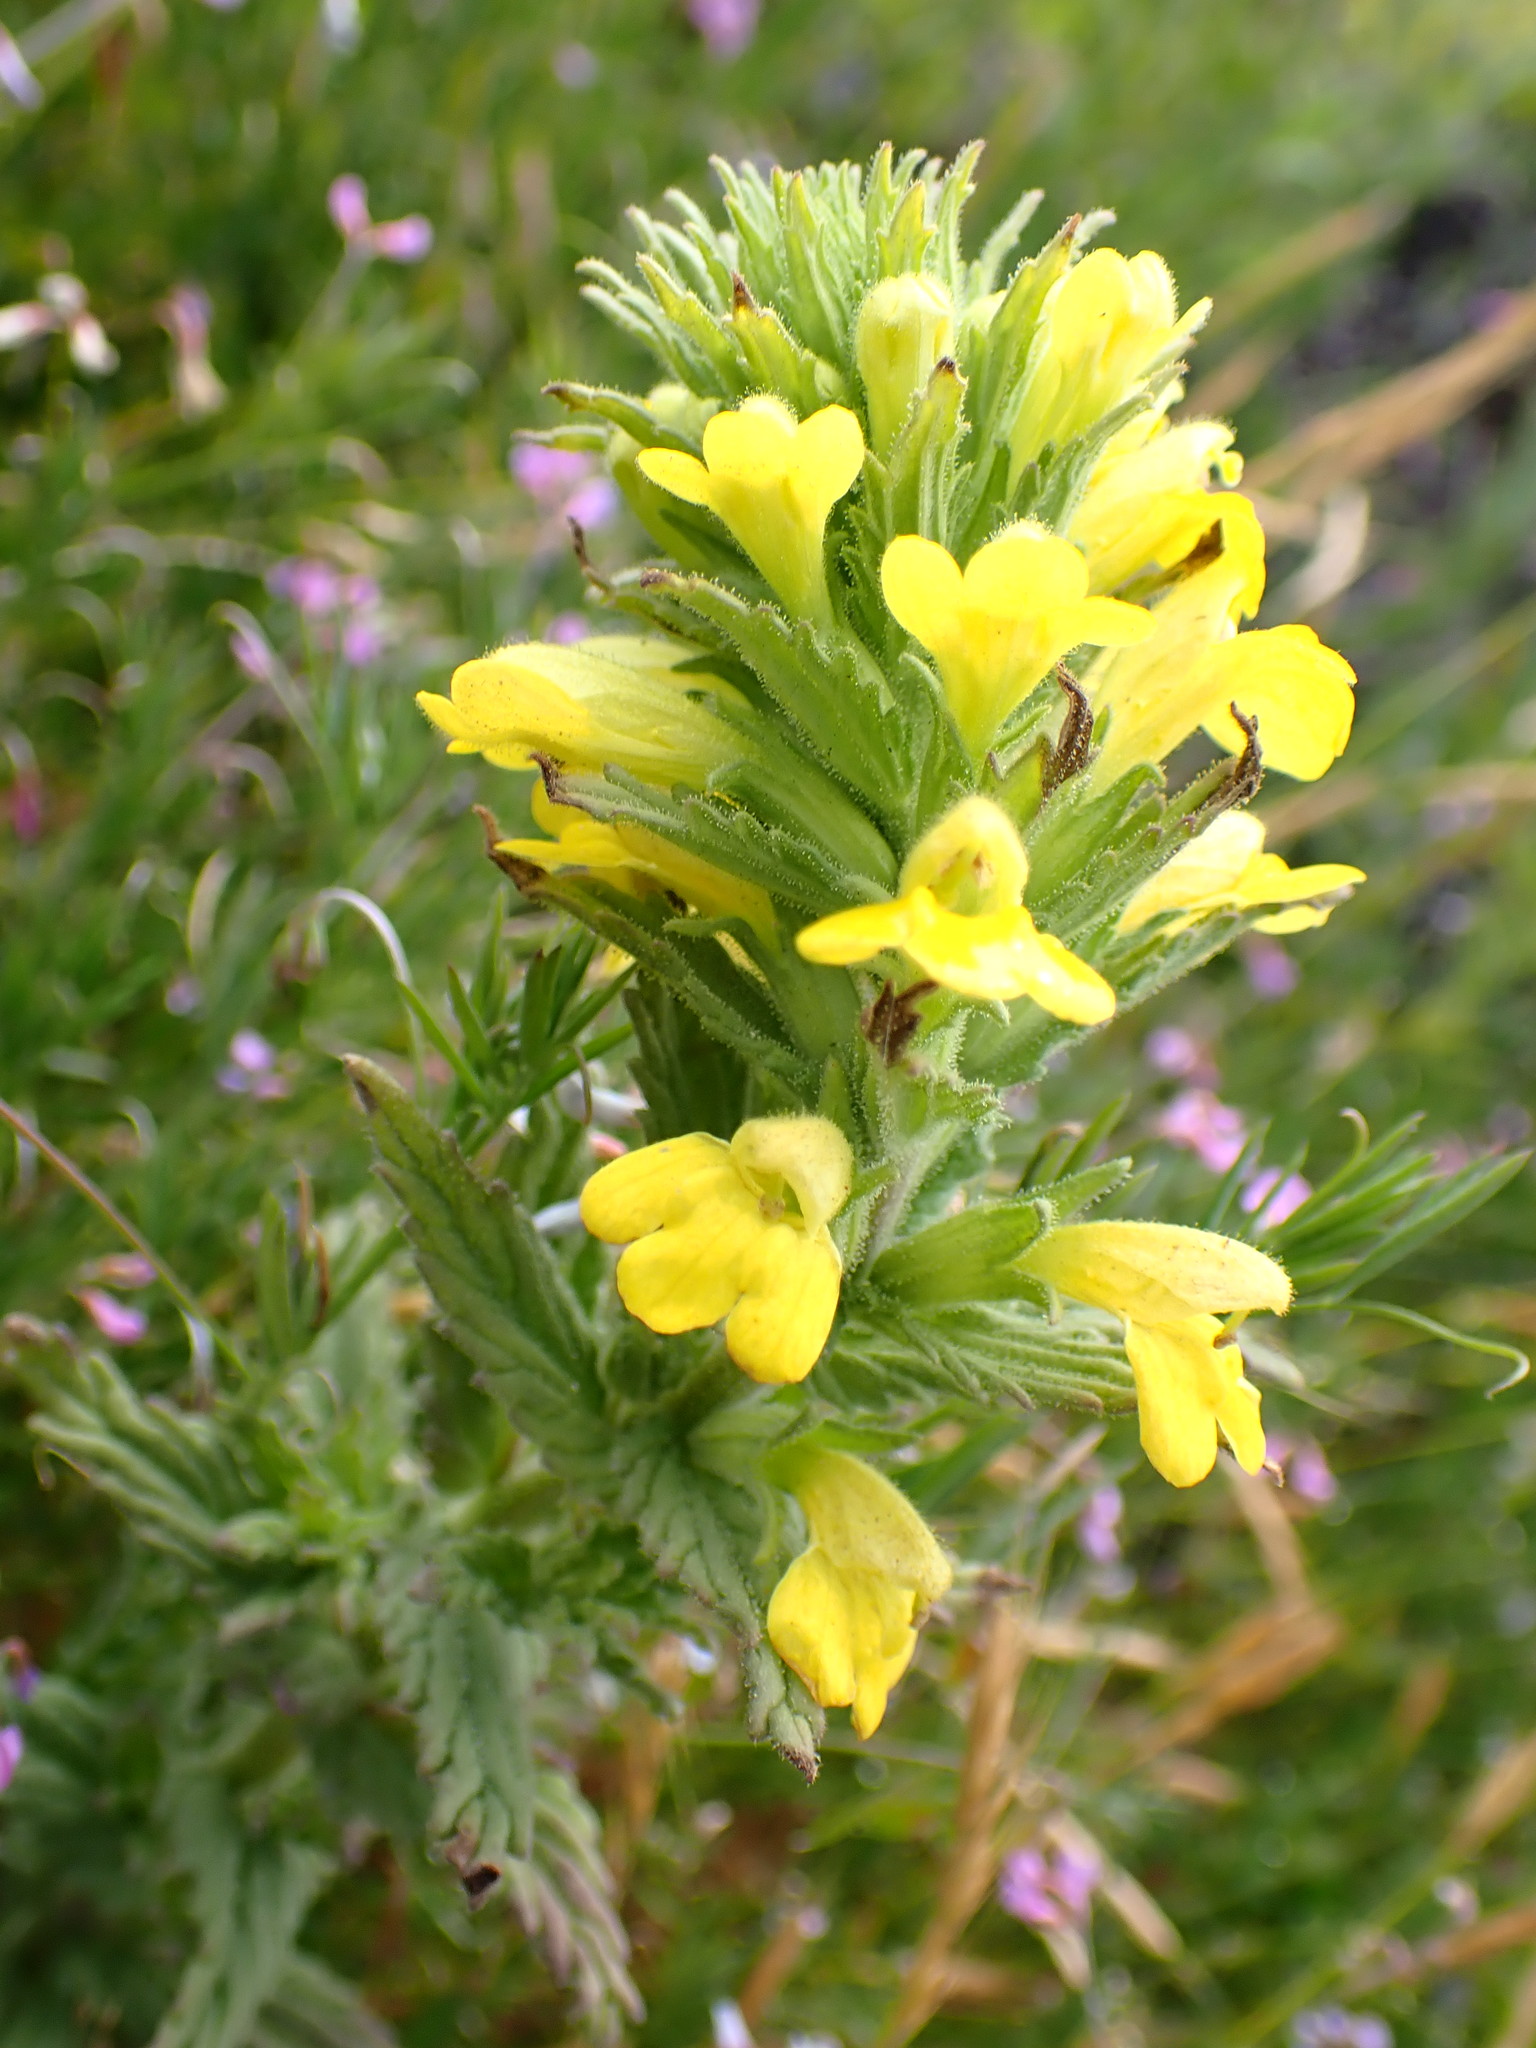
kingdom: Plantae
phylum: Tracheophyta
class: Magnoliopsida
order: Lamiales
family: Orobanchaceae
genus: Bellardia
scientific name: Bellardia viscosa
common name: Sticky parentucellia
